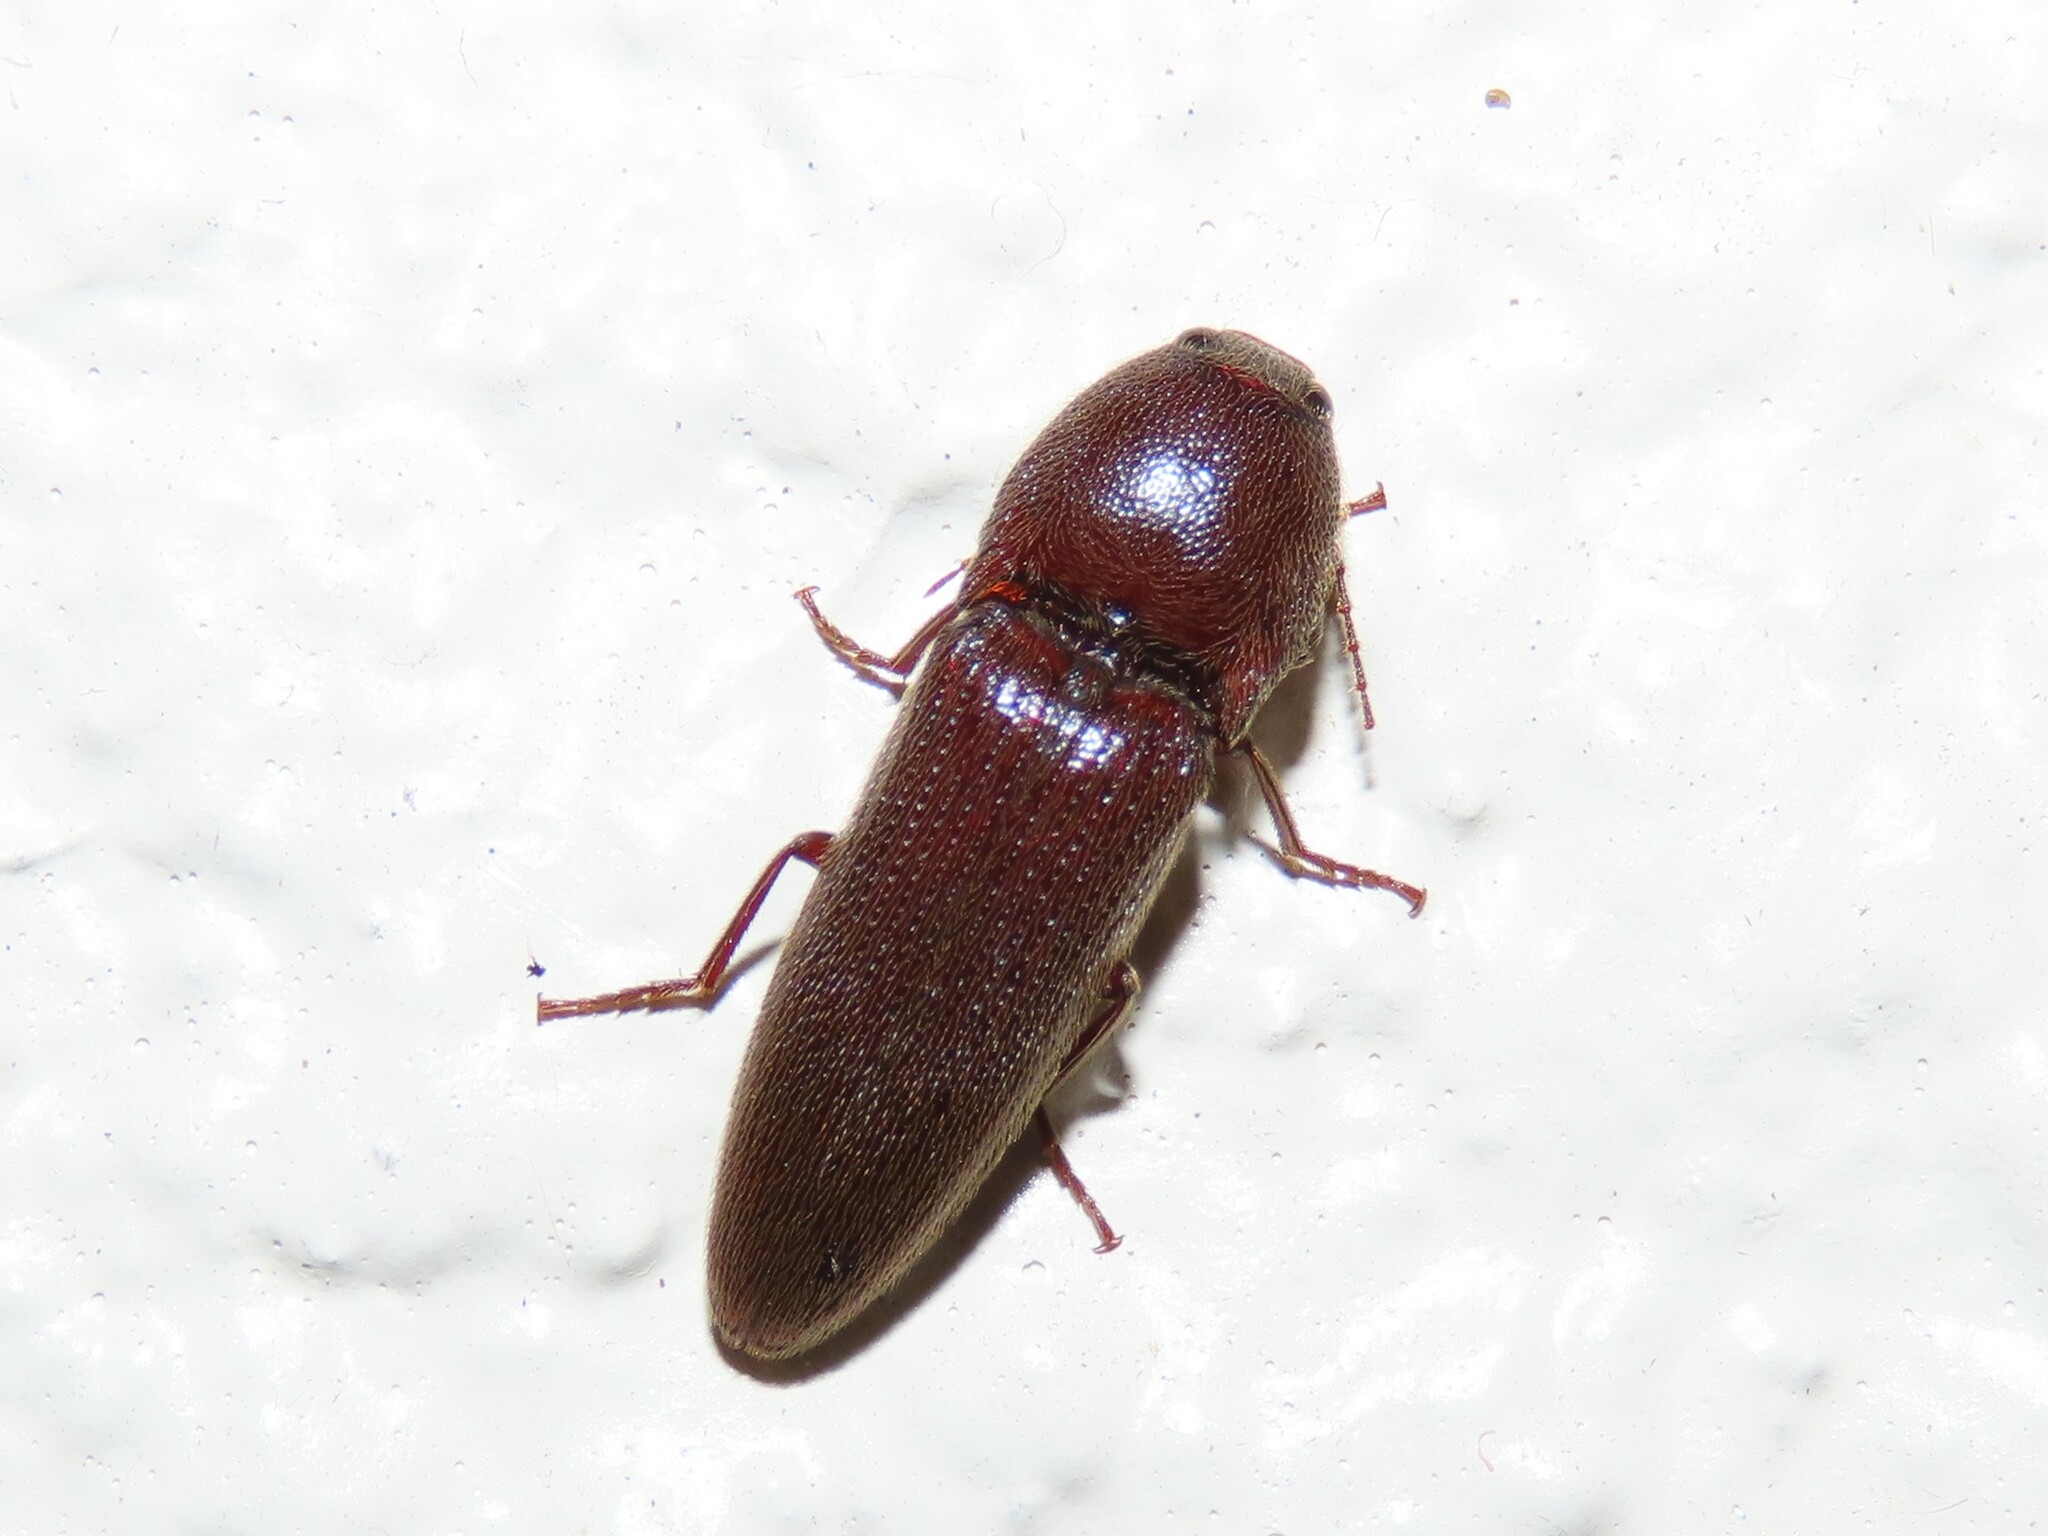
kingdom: Animalia
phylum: Arthropoda
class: Insecta
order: Coleoptera
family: Elateridae
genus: Melanotus
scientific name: Melanotus
